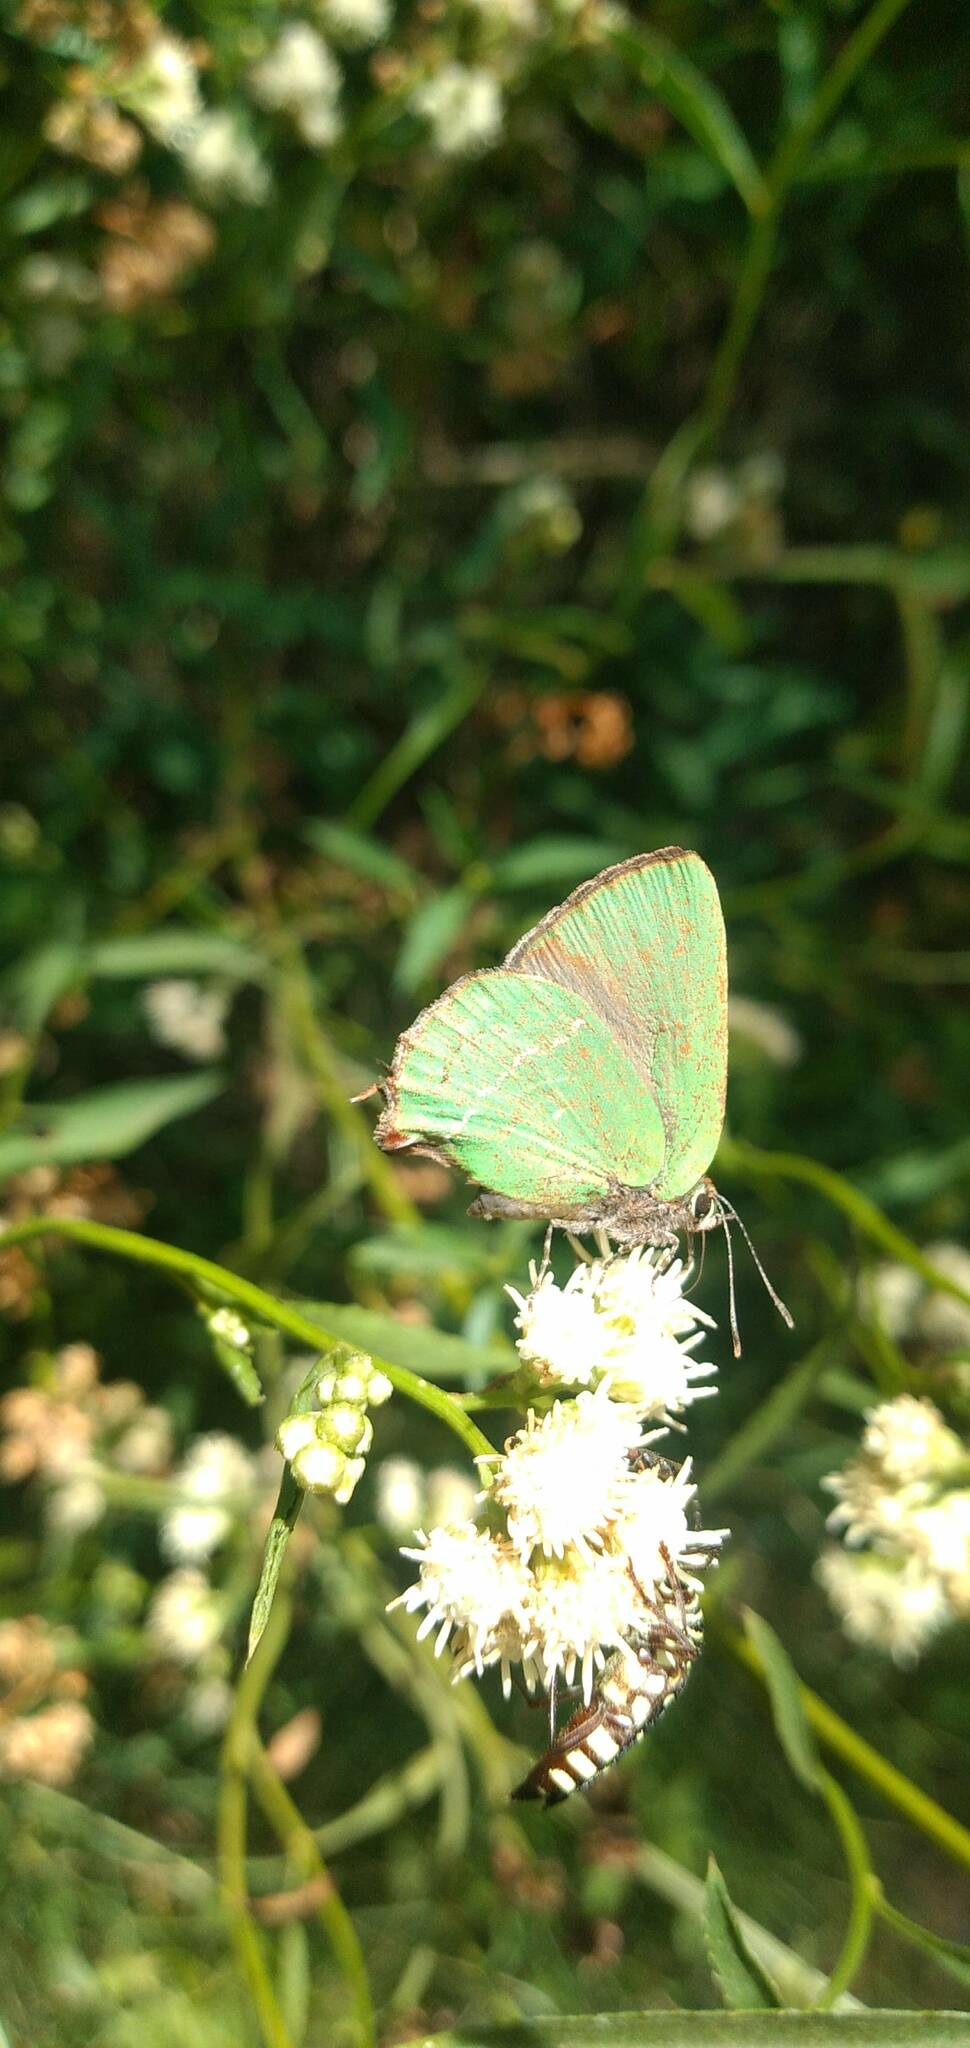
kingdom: Animalia
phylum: Arthropoda
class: Insecta
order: Lepidoptera
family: Lycaenidae
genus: Cyanophrys
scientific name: Cyanophrys
